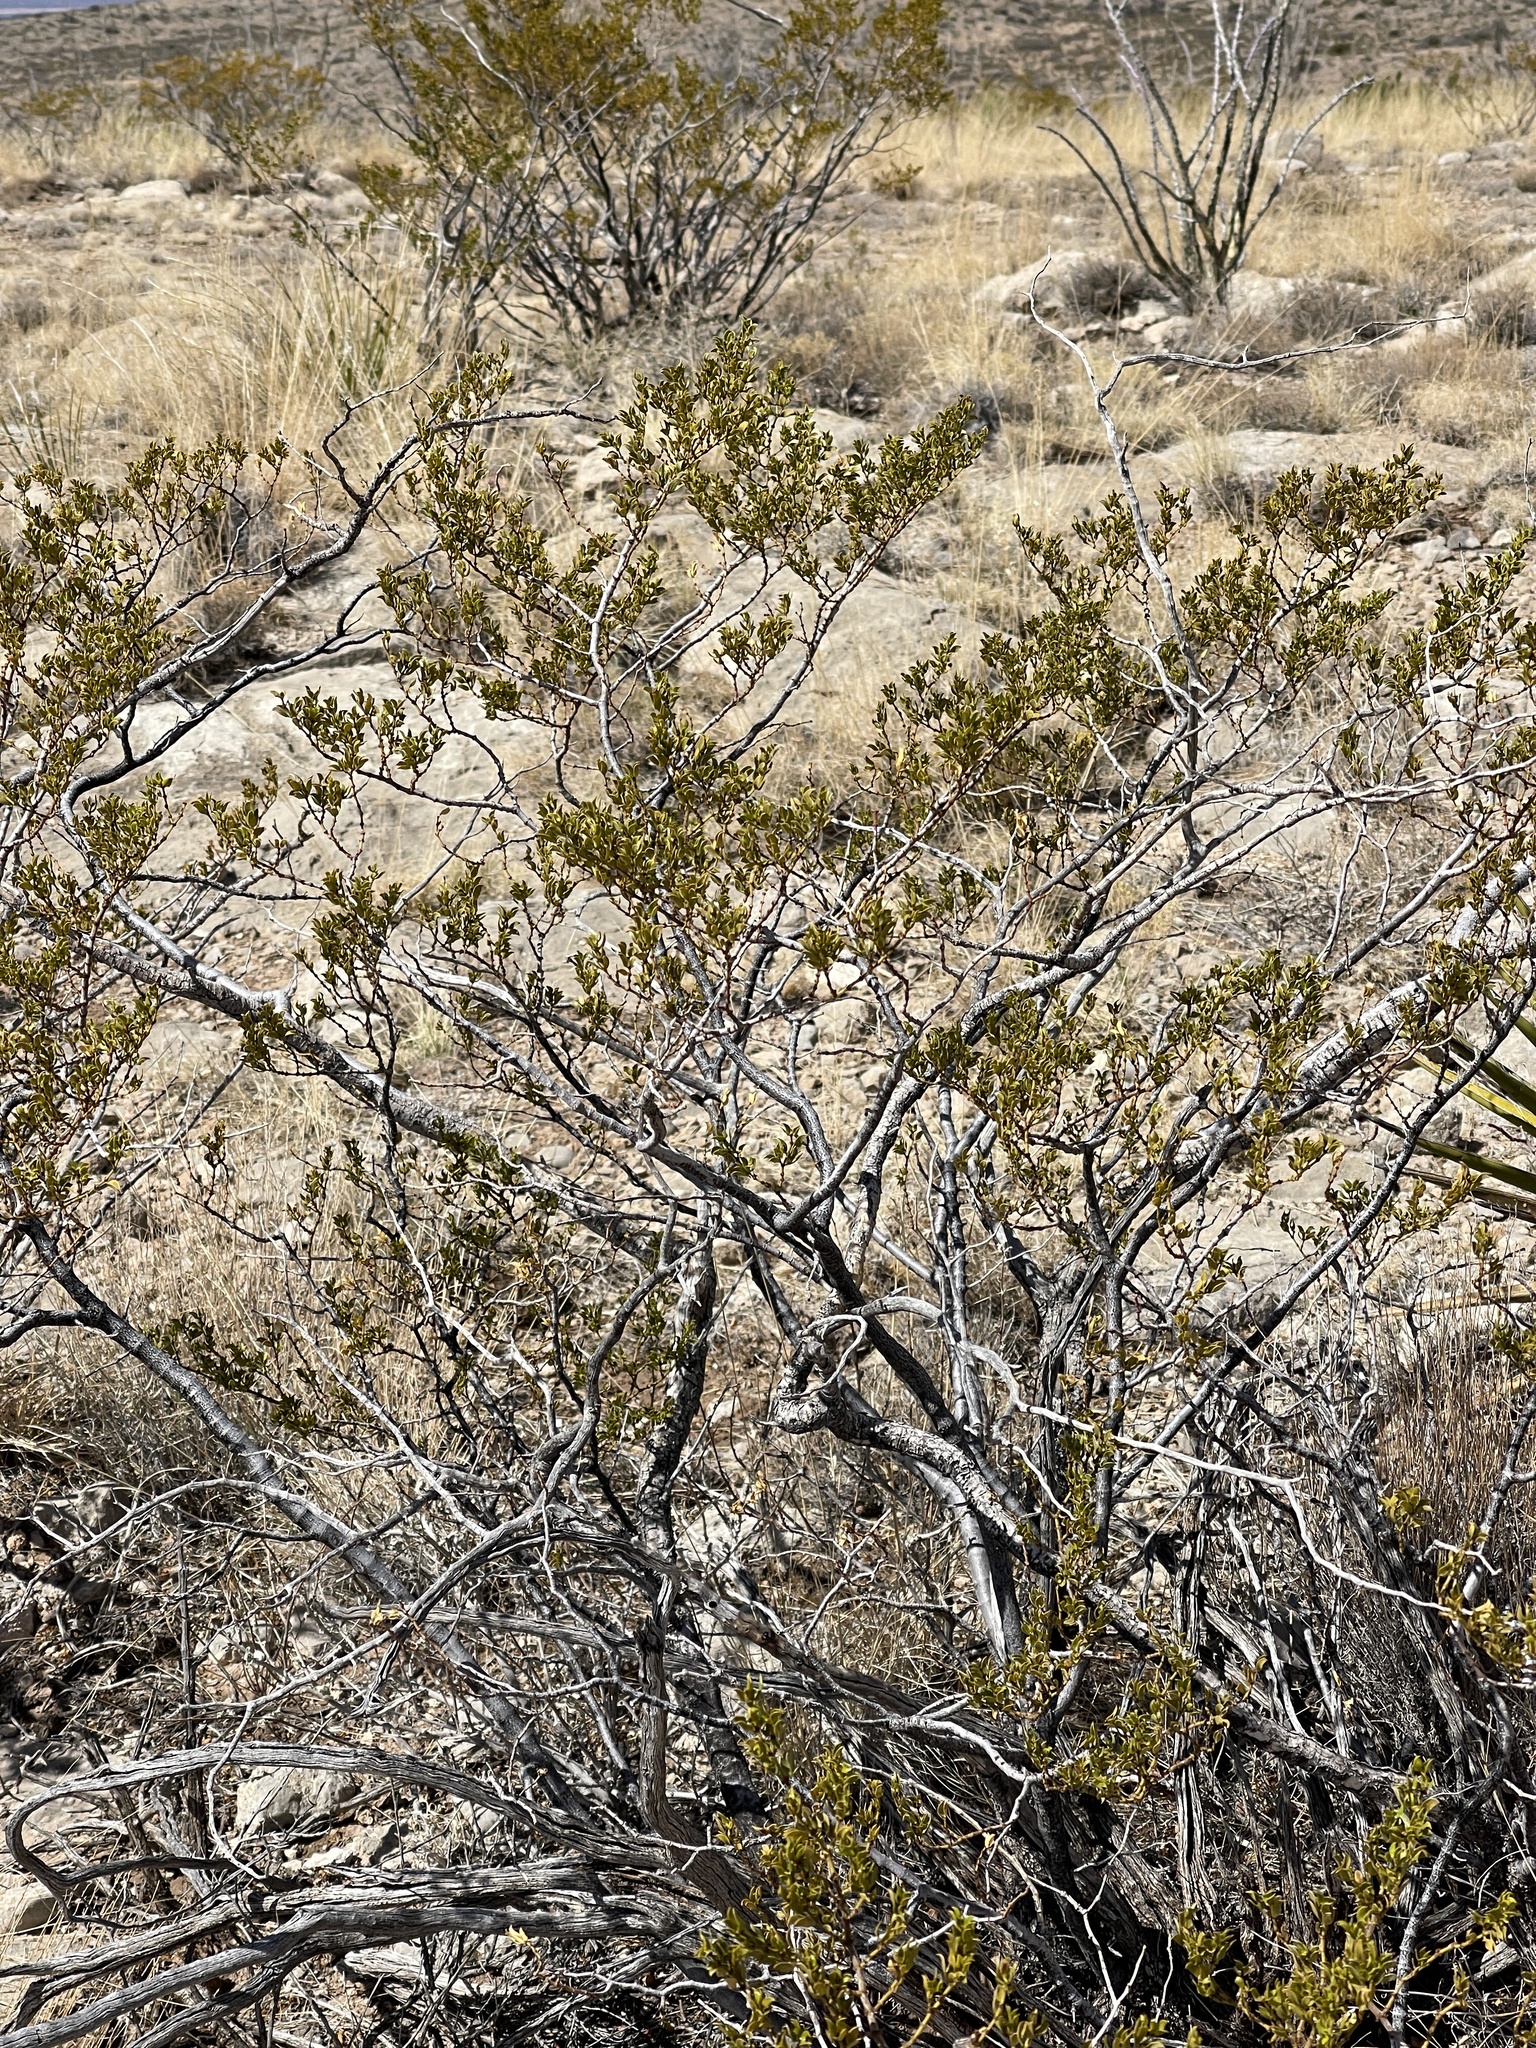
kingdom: Plantae
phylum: Tracheophyta
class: Magnoliopsida
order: Zygophyllales
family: Zygophyllaceae
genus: Larrea
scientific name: Larrea tridentata
